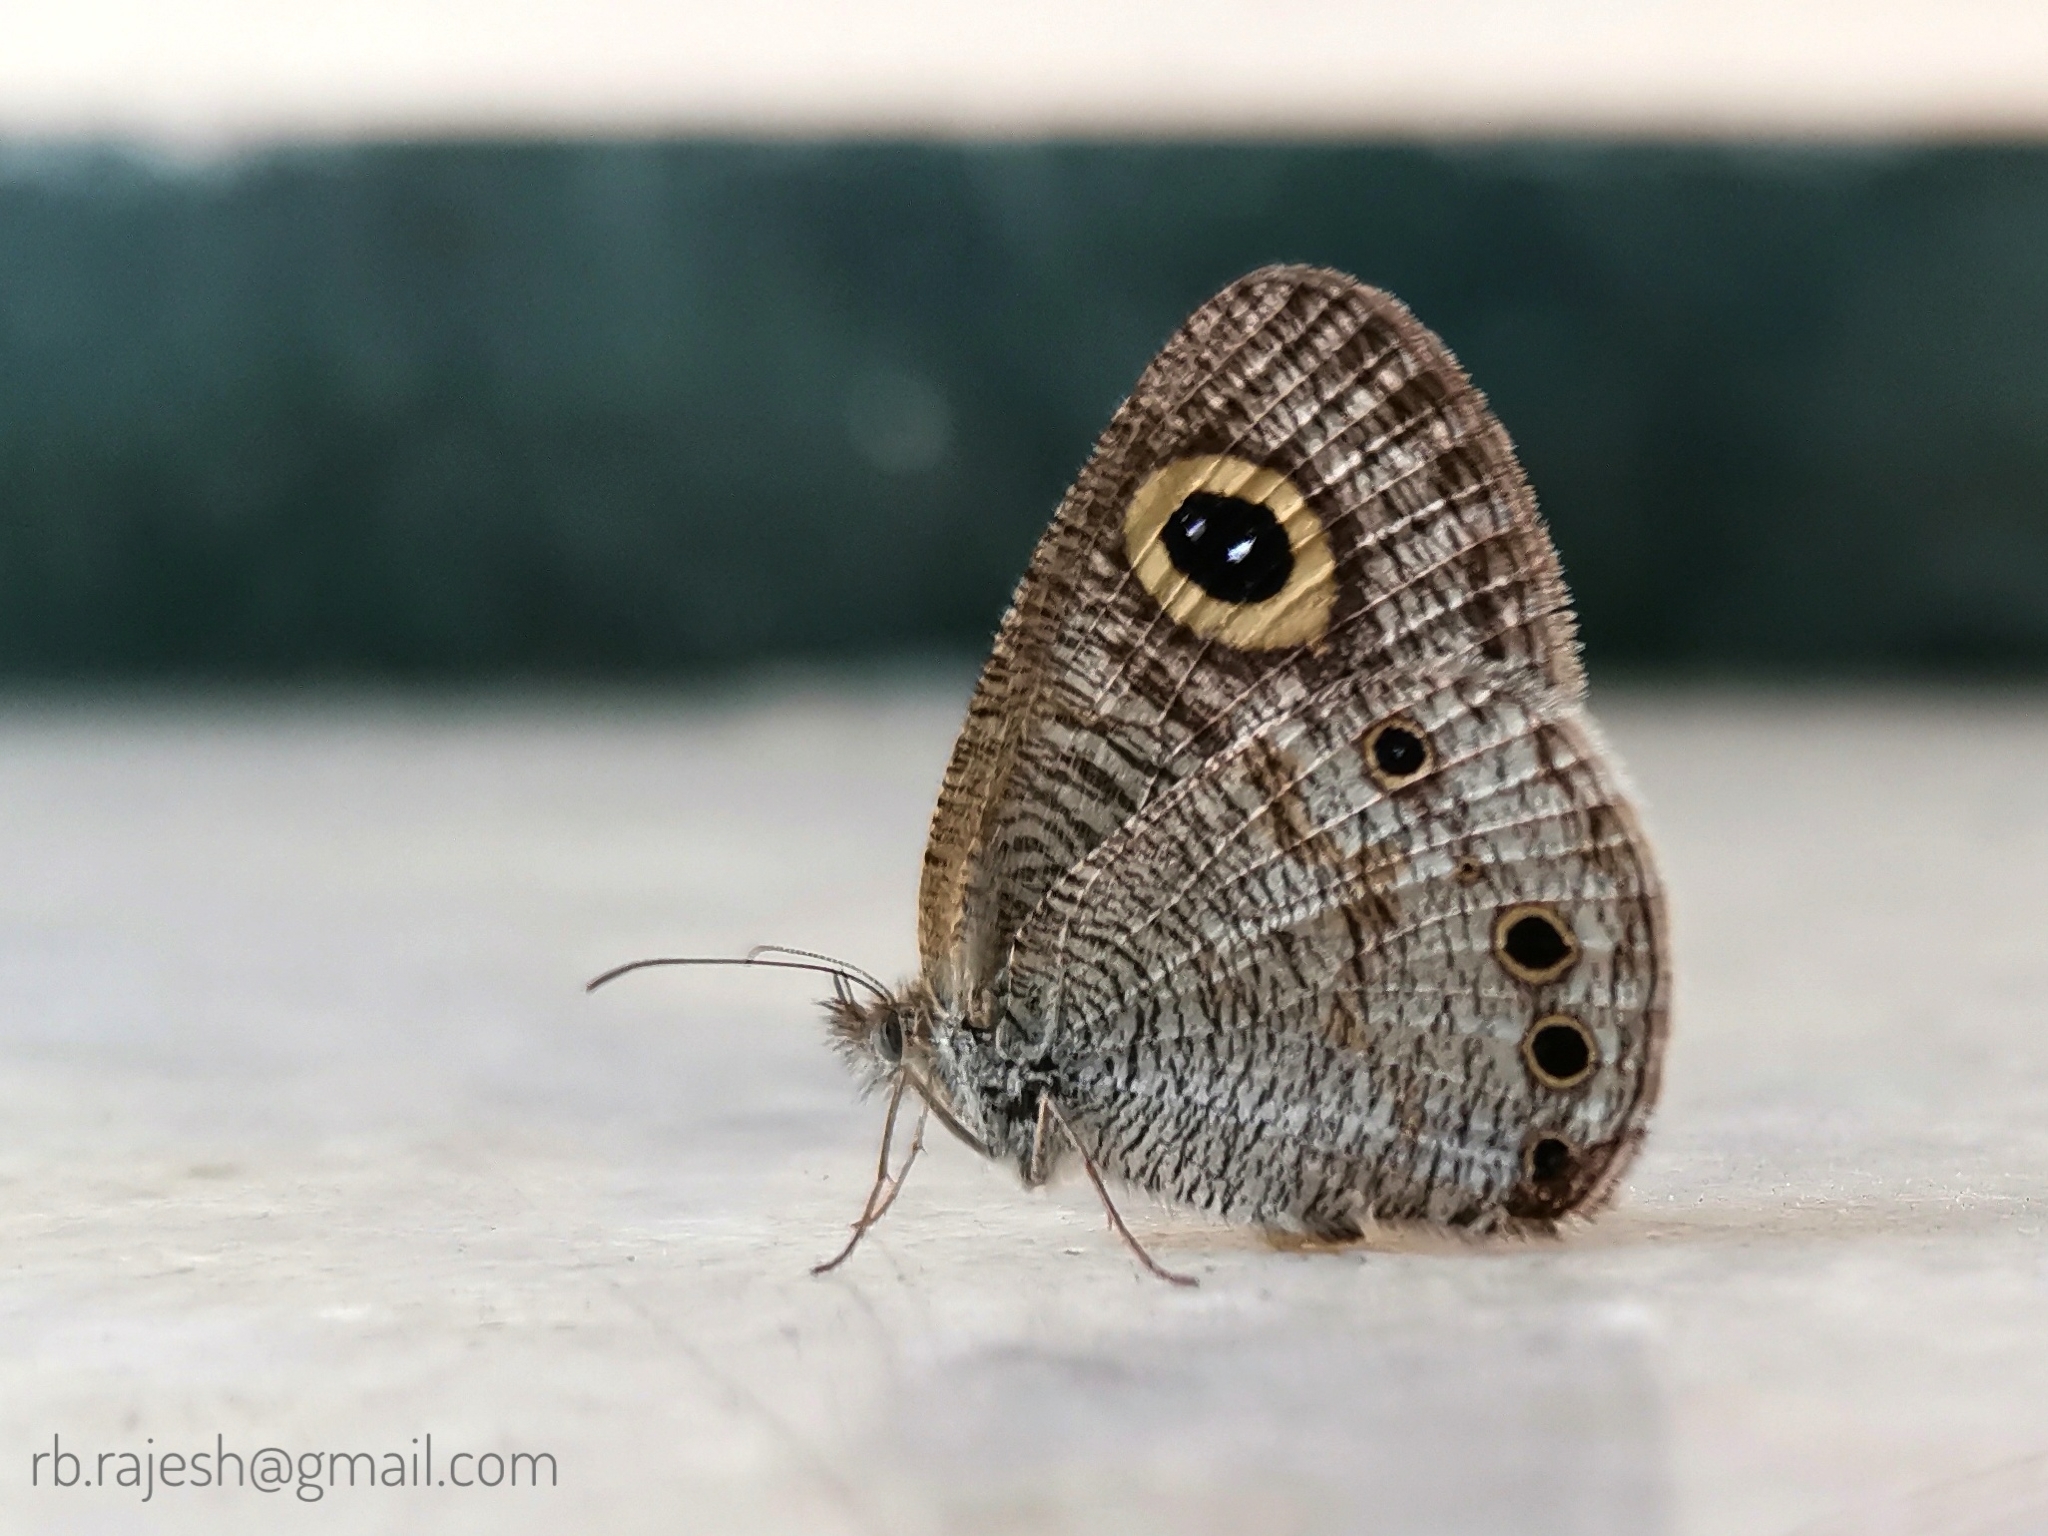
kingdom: Animalia
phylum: Arthropoda
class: Insecta
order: Lepidoptera
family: Nymphalidae
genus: Ypthima
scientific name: Ypthima huebneri
